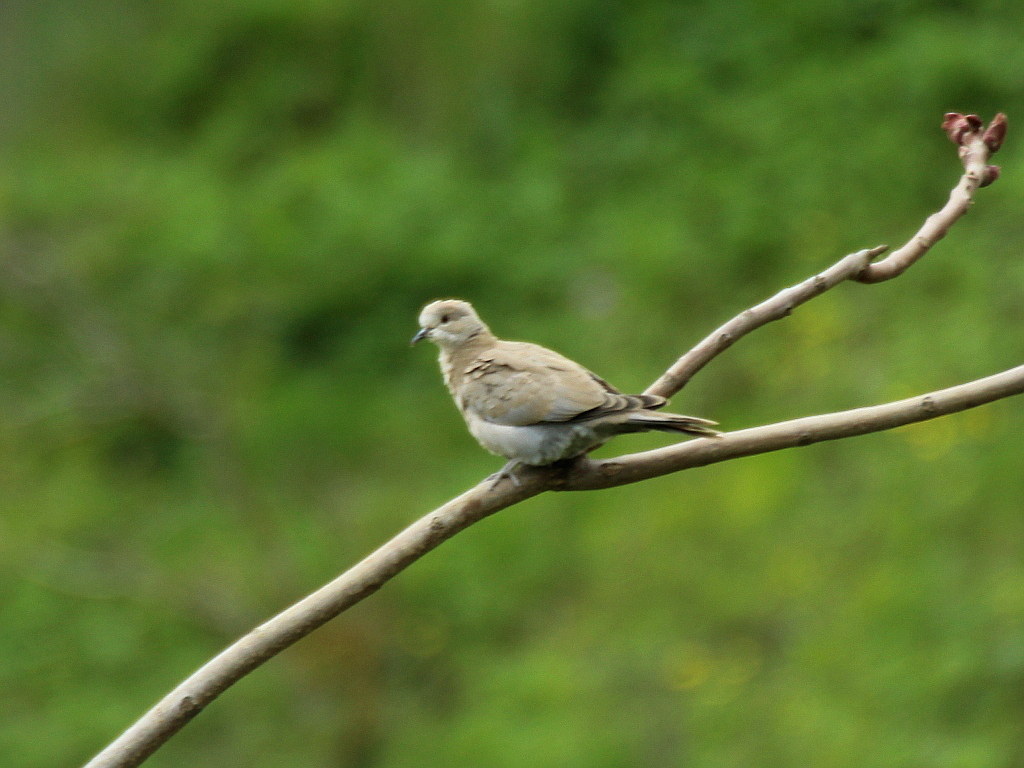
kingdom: Animalia
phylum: Chordata
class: Aves
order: Columbiformes
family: Columbidae
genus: Streptopelia
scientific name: Streptopelia decaocto
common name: Eurasian collared dove
